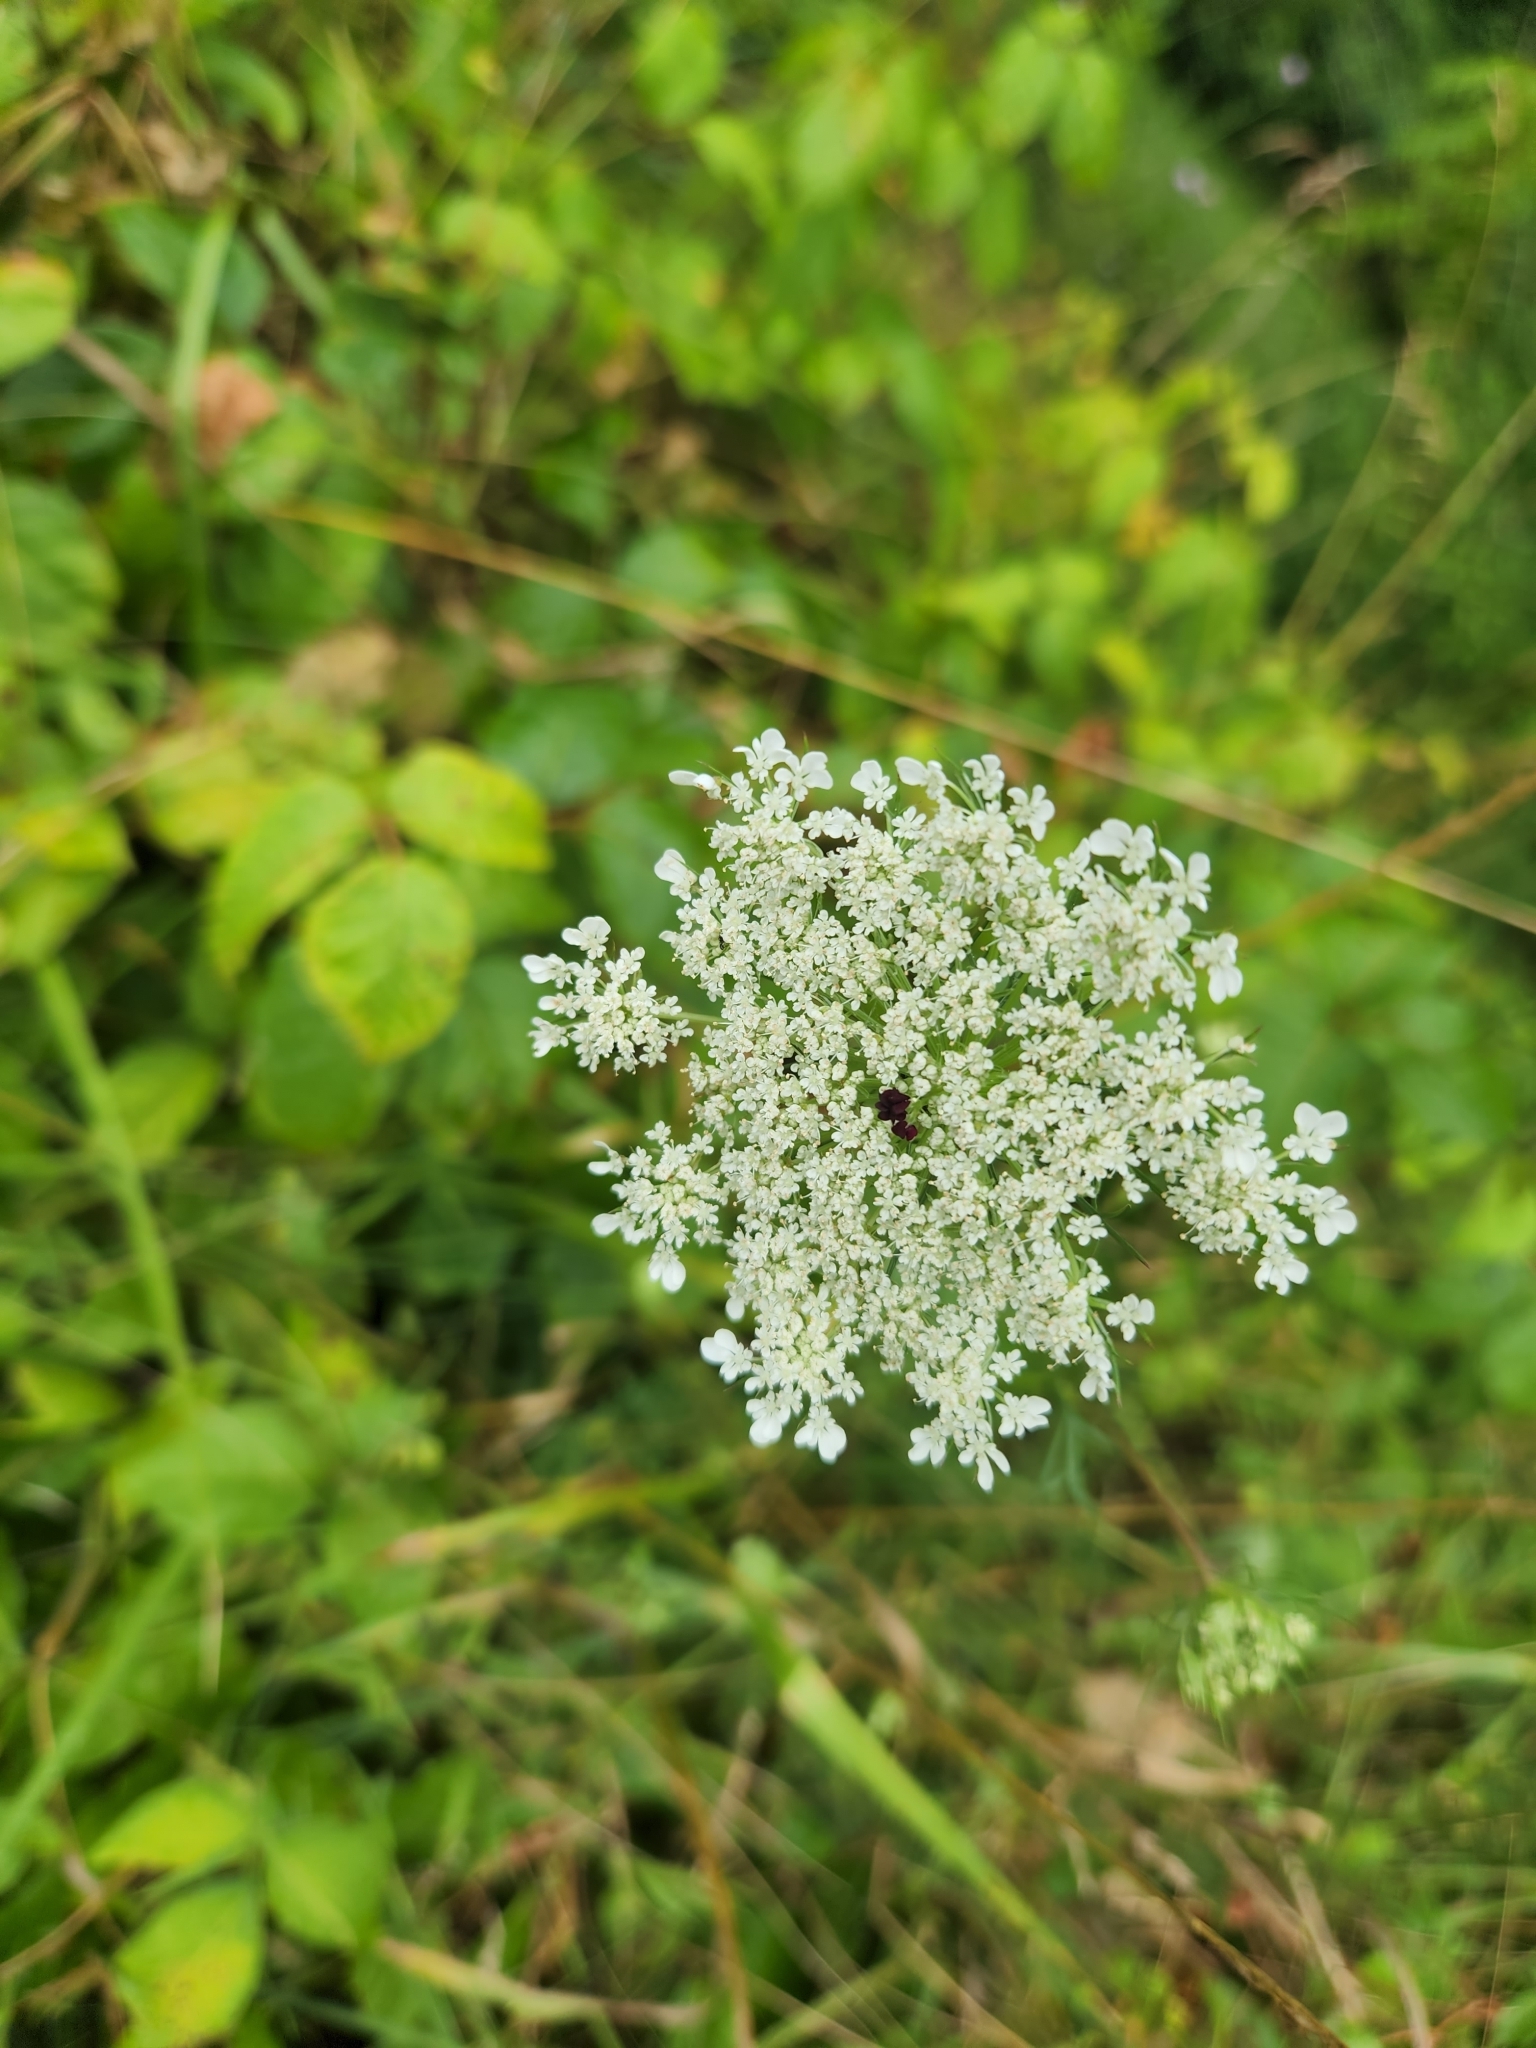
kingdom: Plantae
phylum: Tracheophyta
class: Magnoliopsida
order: Apiales
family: Apiaceae
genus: Daucus
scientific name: Daucus carota
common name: Wild carrot
